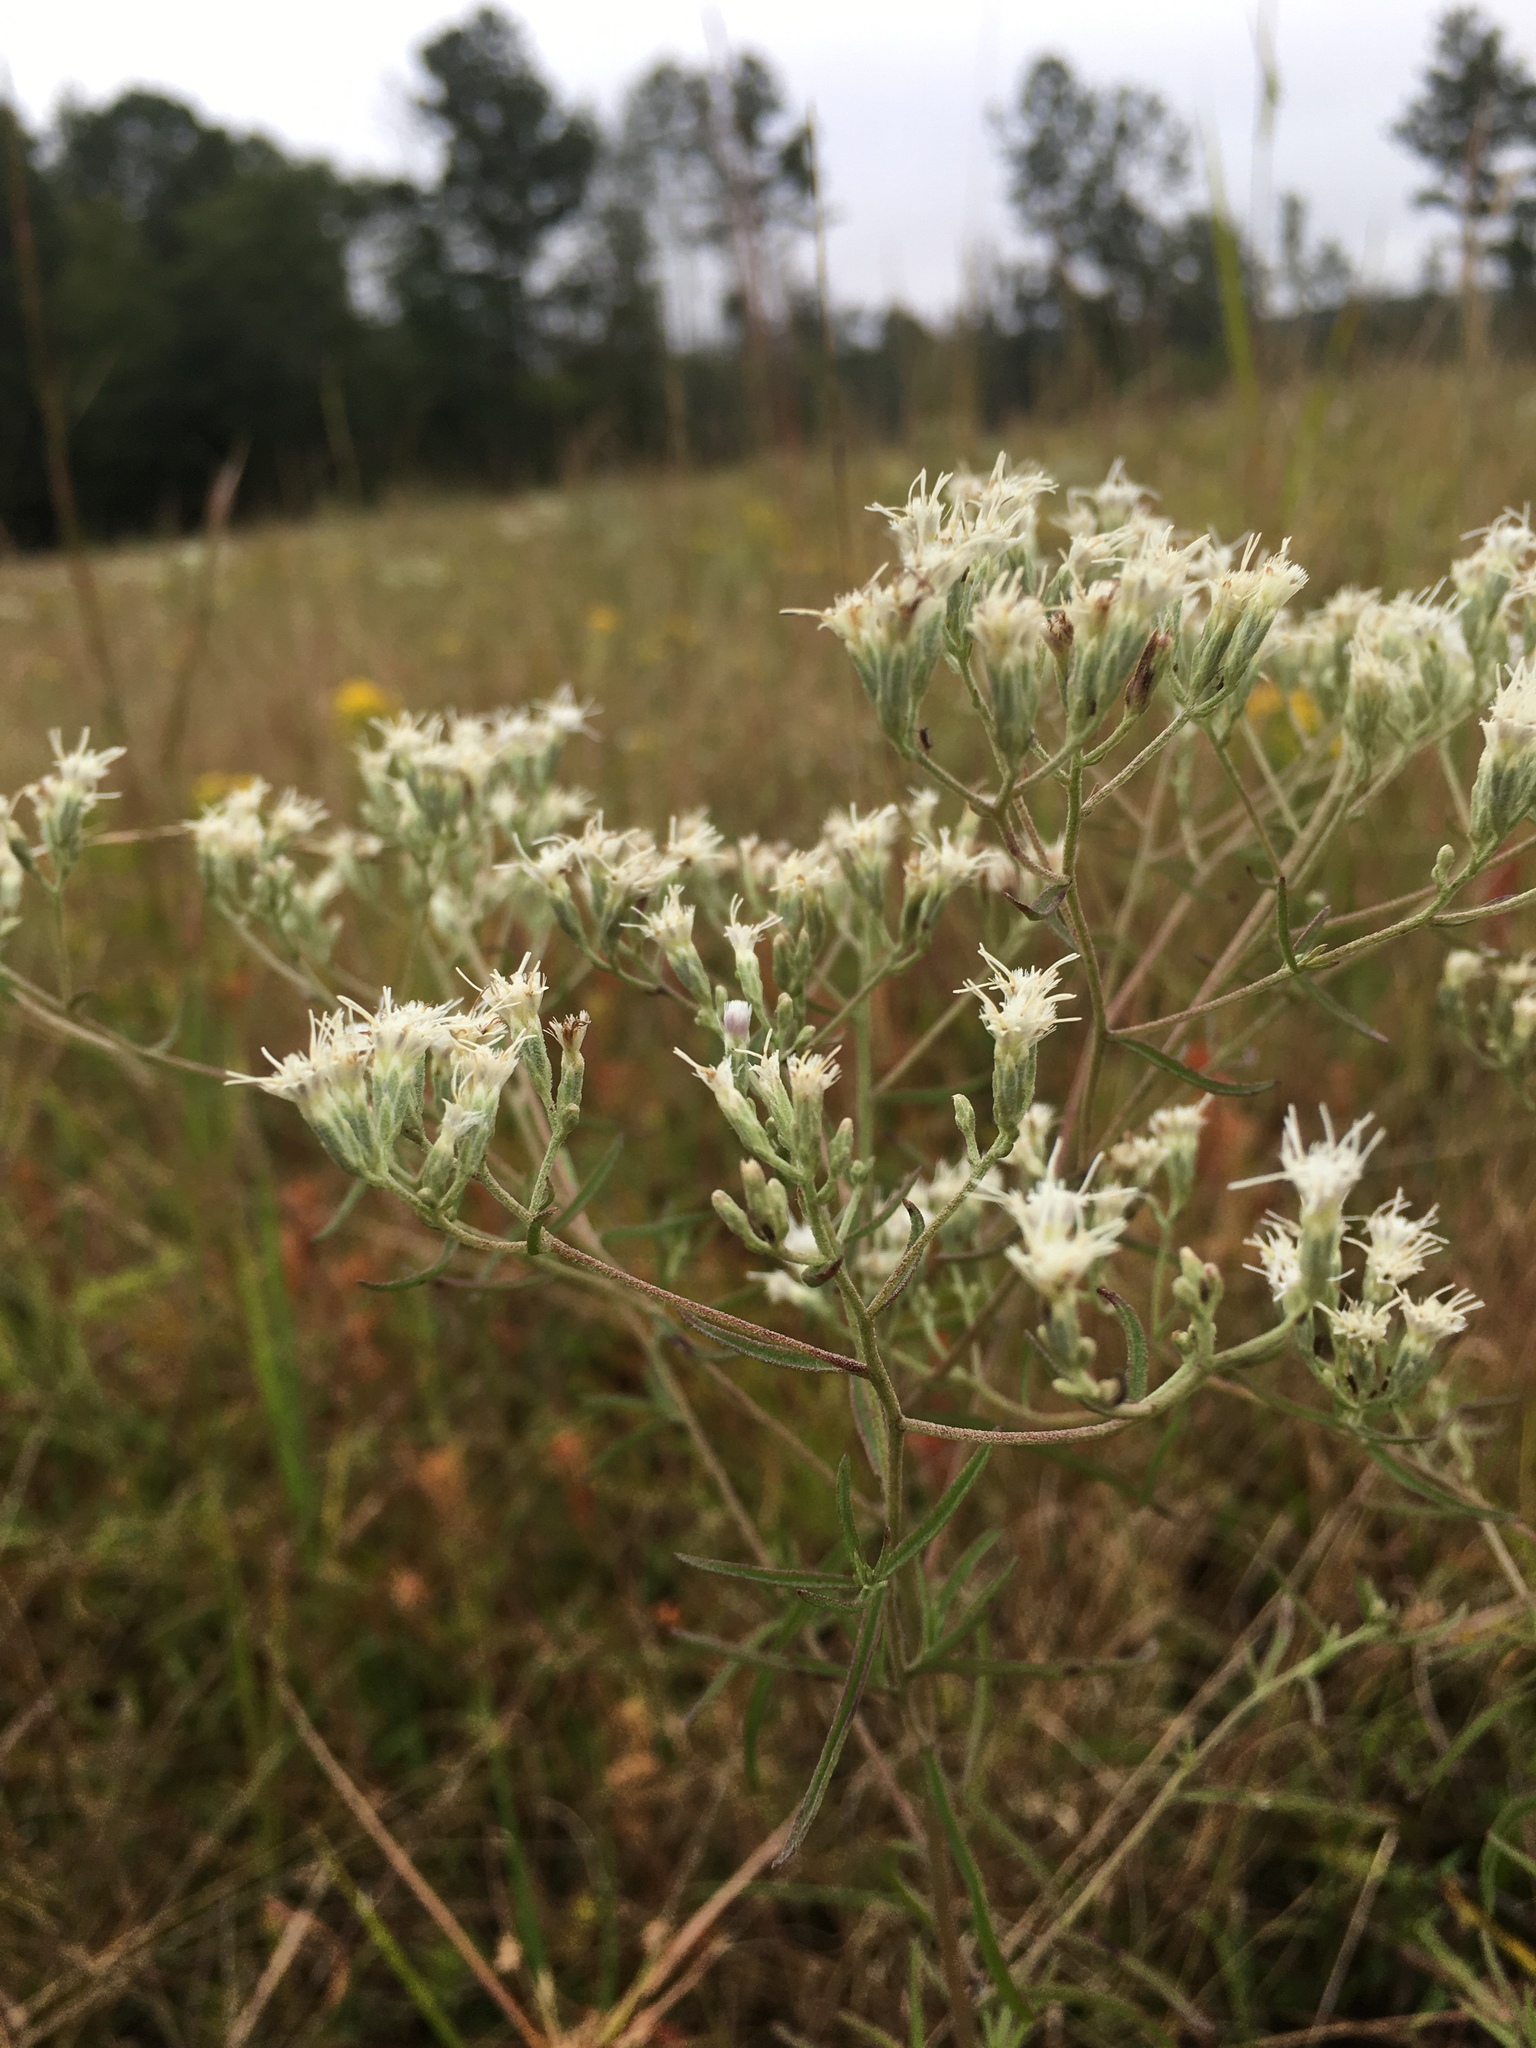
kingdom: Plantae
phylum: Tracheophyta
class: Magnoliopsida
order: Asterales
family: Asteraceae
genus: Eupatorium
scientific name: Eupatorium hyssopifolium
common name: Hyssop-leaf thoroughwort
